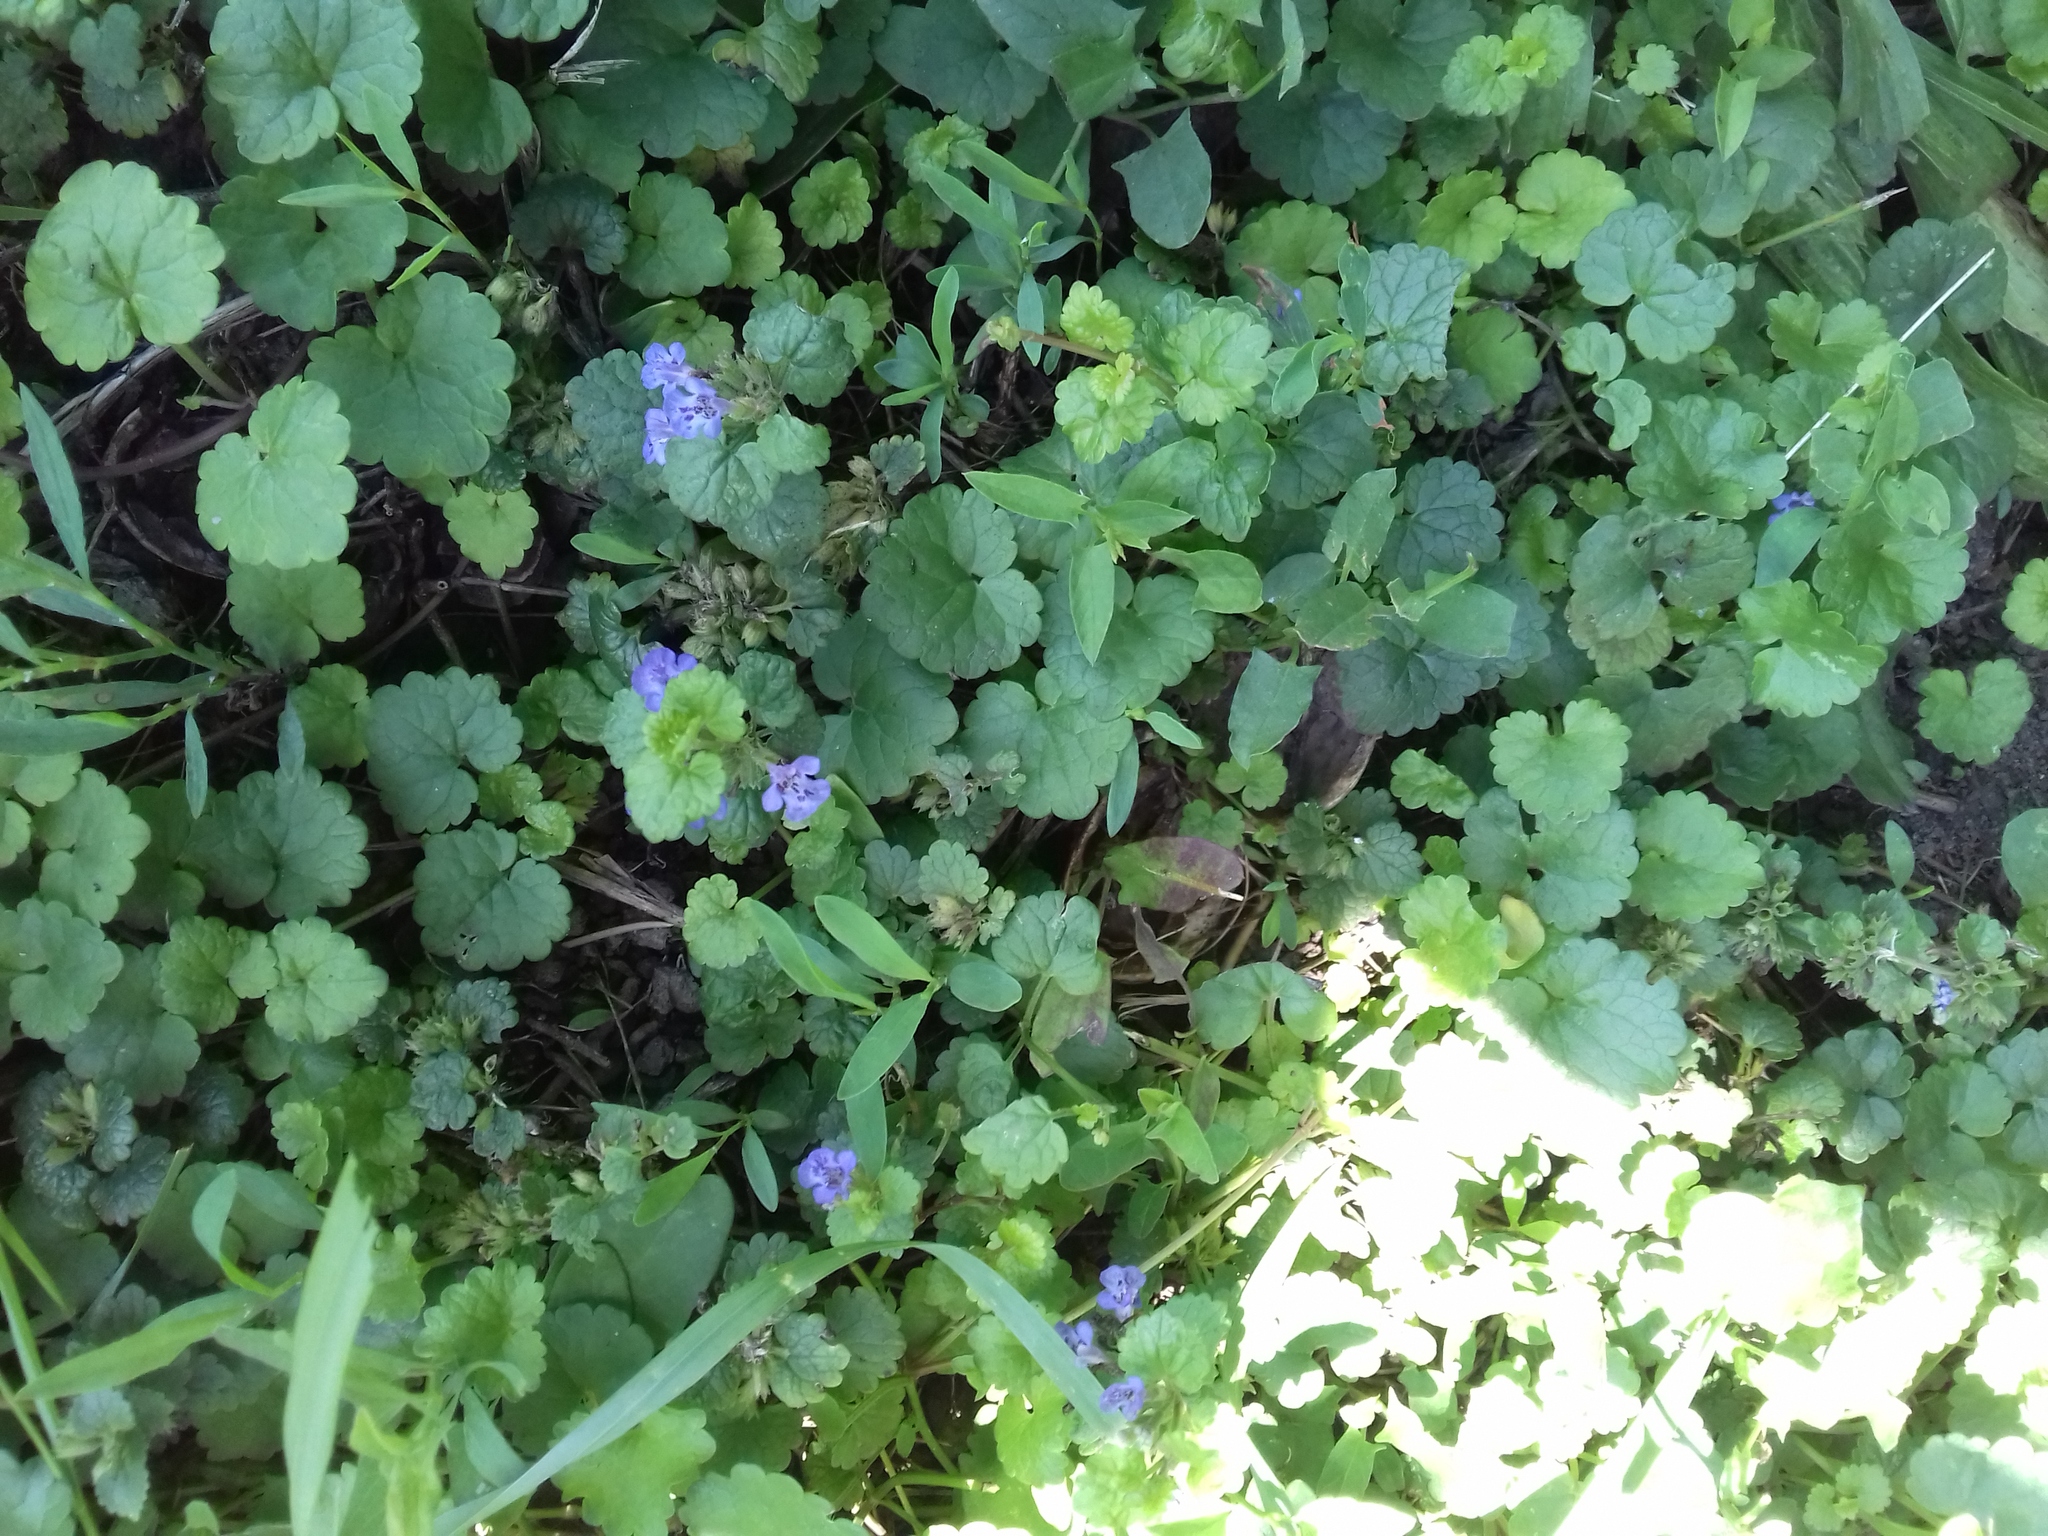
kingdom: Plantae
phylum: Tracheophyta
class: Magnoliopsida
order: Lamiales
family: Lamiaceae
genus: Glechoma
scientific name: Glechoma hederacea
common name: Ground ivy
